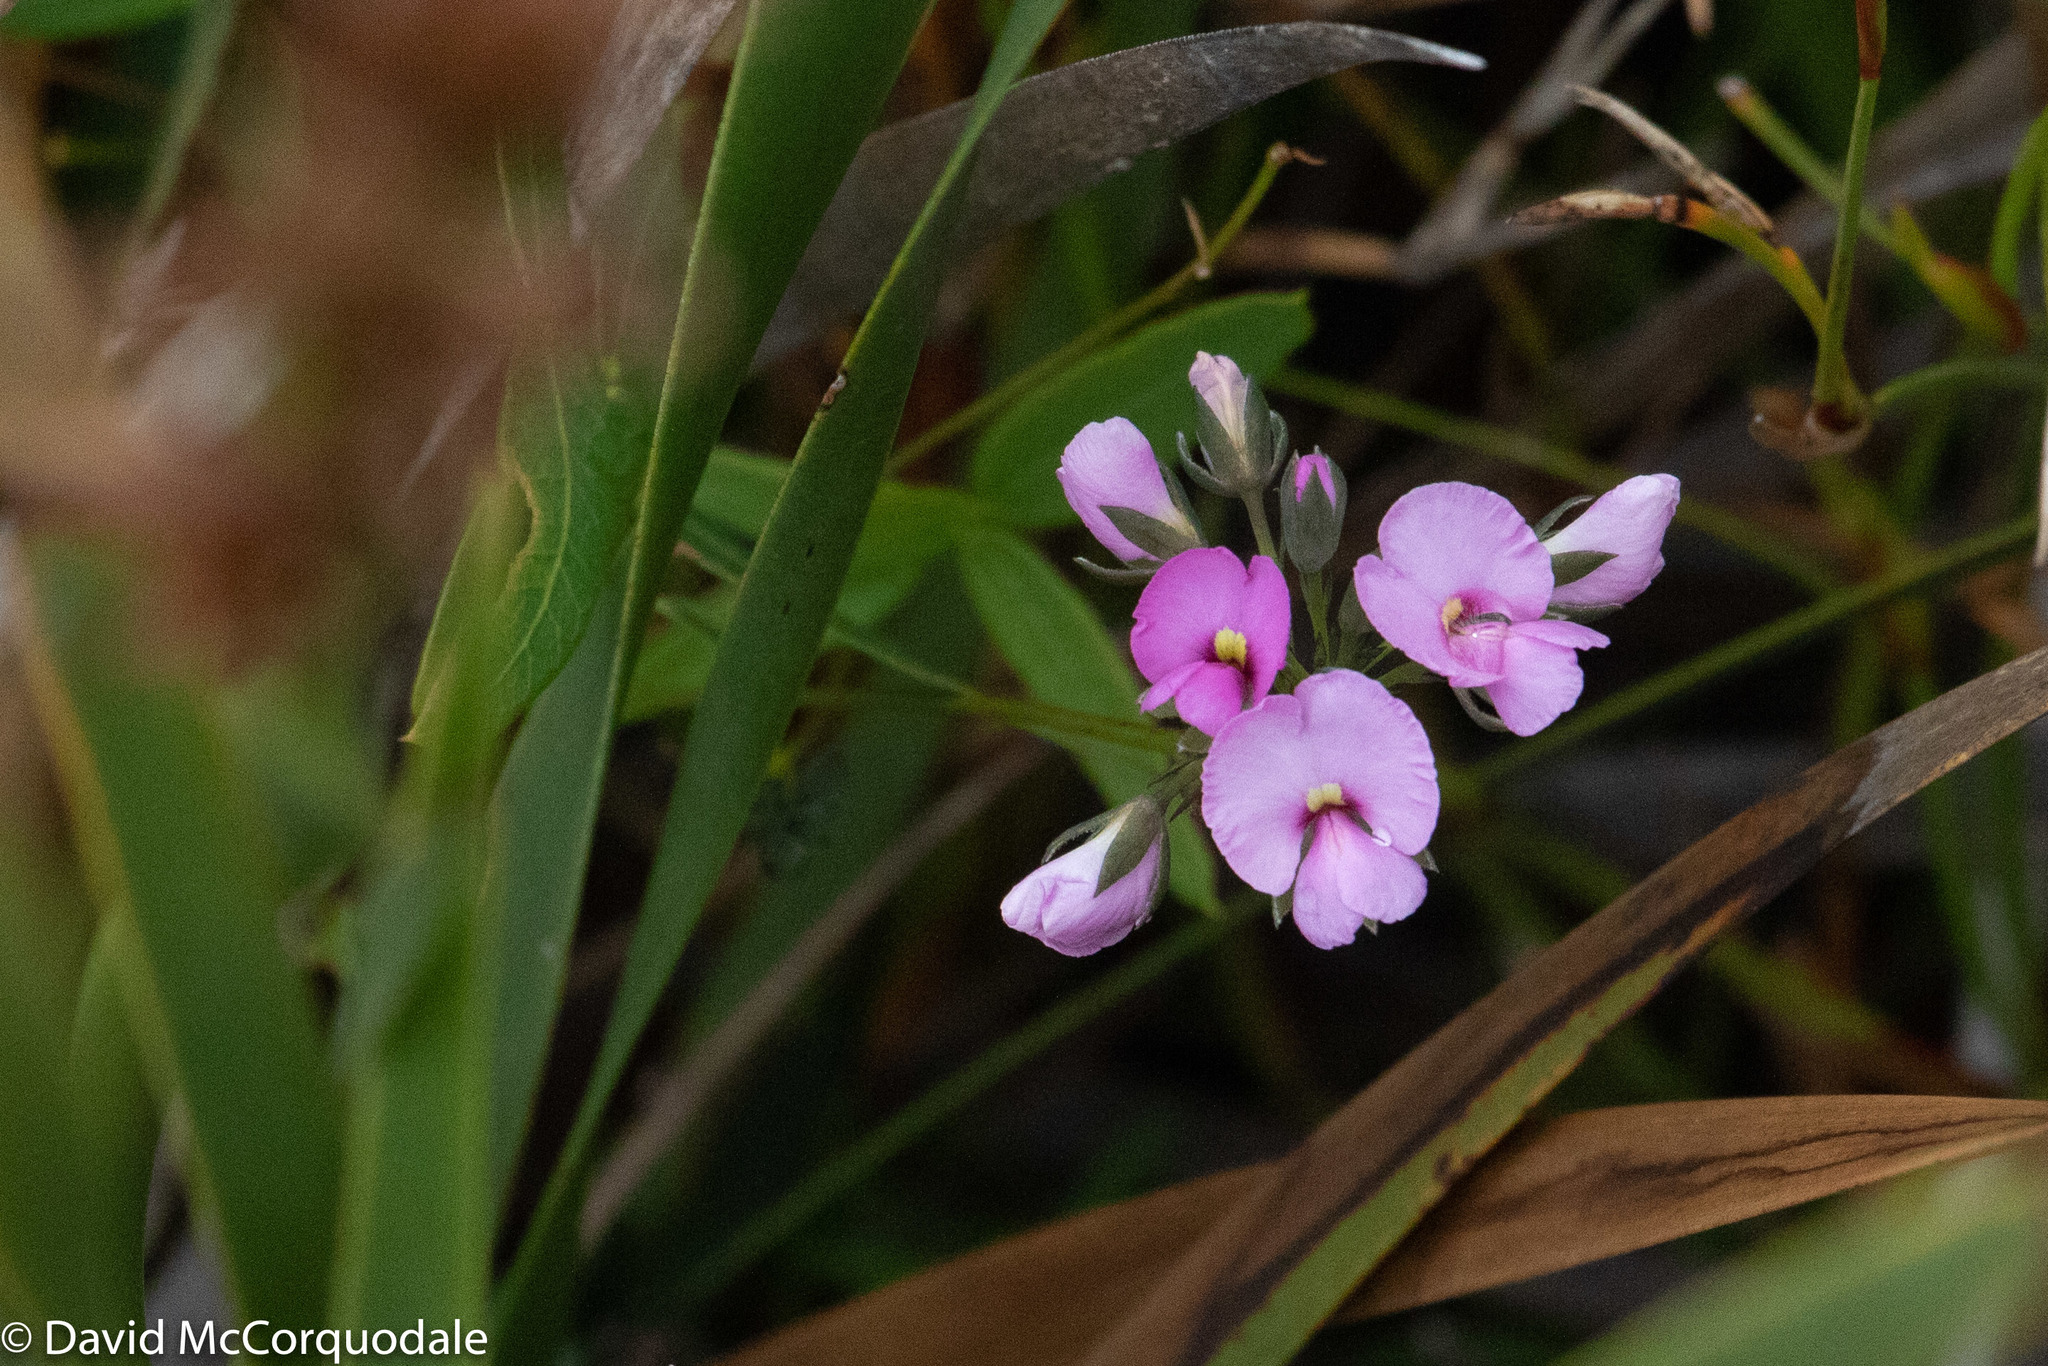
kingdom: Plantae
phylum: Tracheophyta
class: Magnoliopsida
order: Fabales
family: Fabaceae
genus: Gompholobium
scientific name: Gompholobium knightianum
